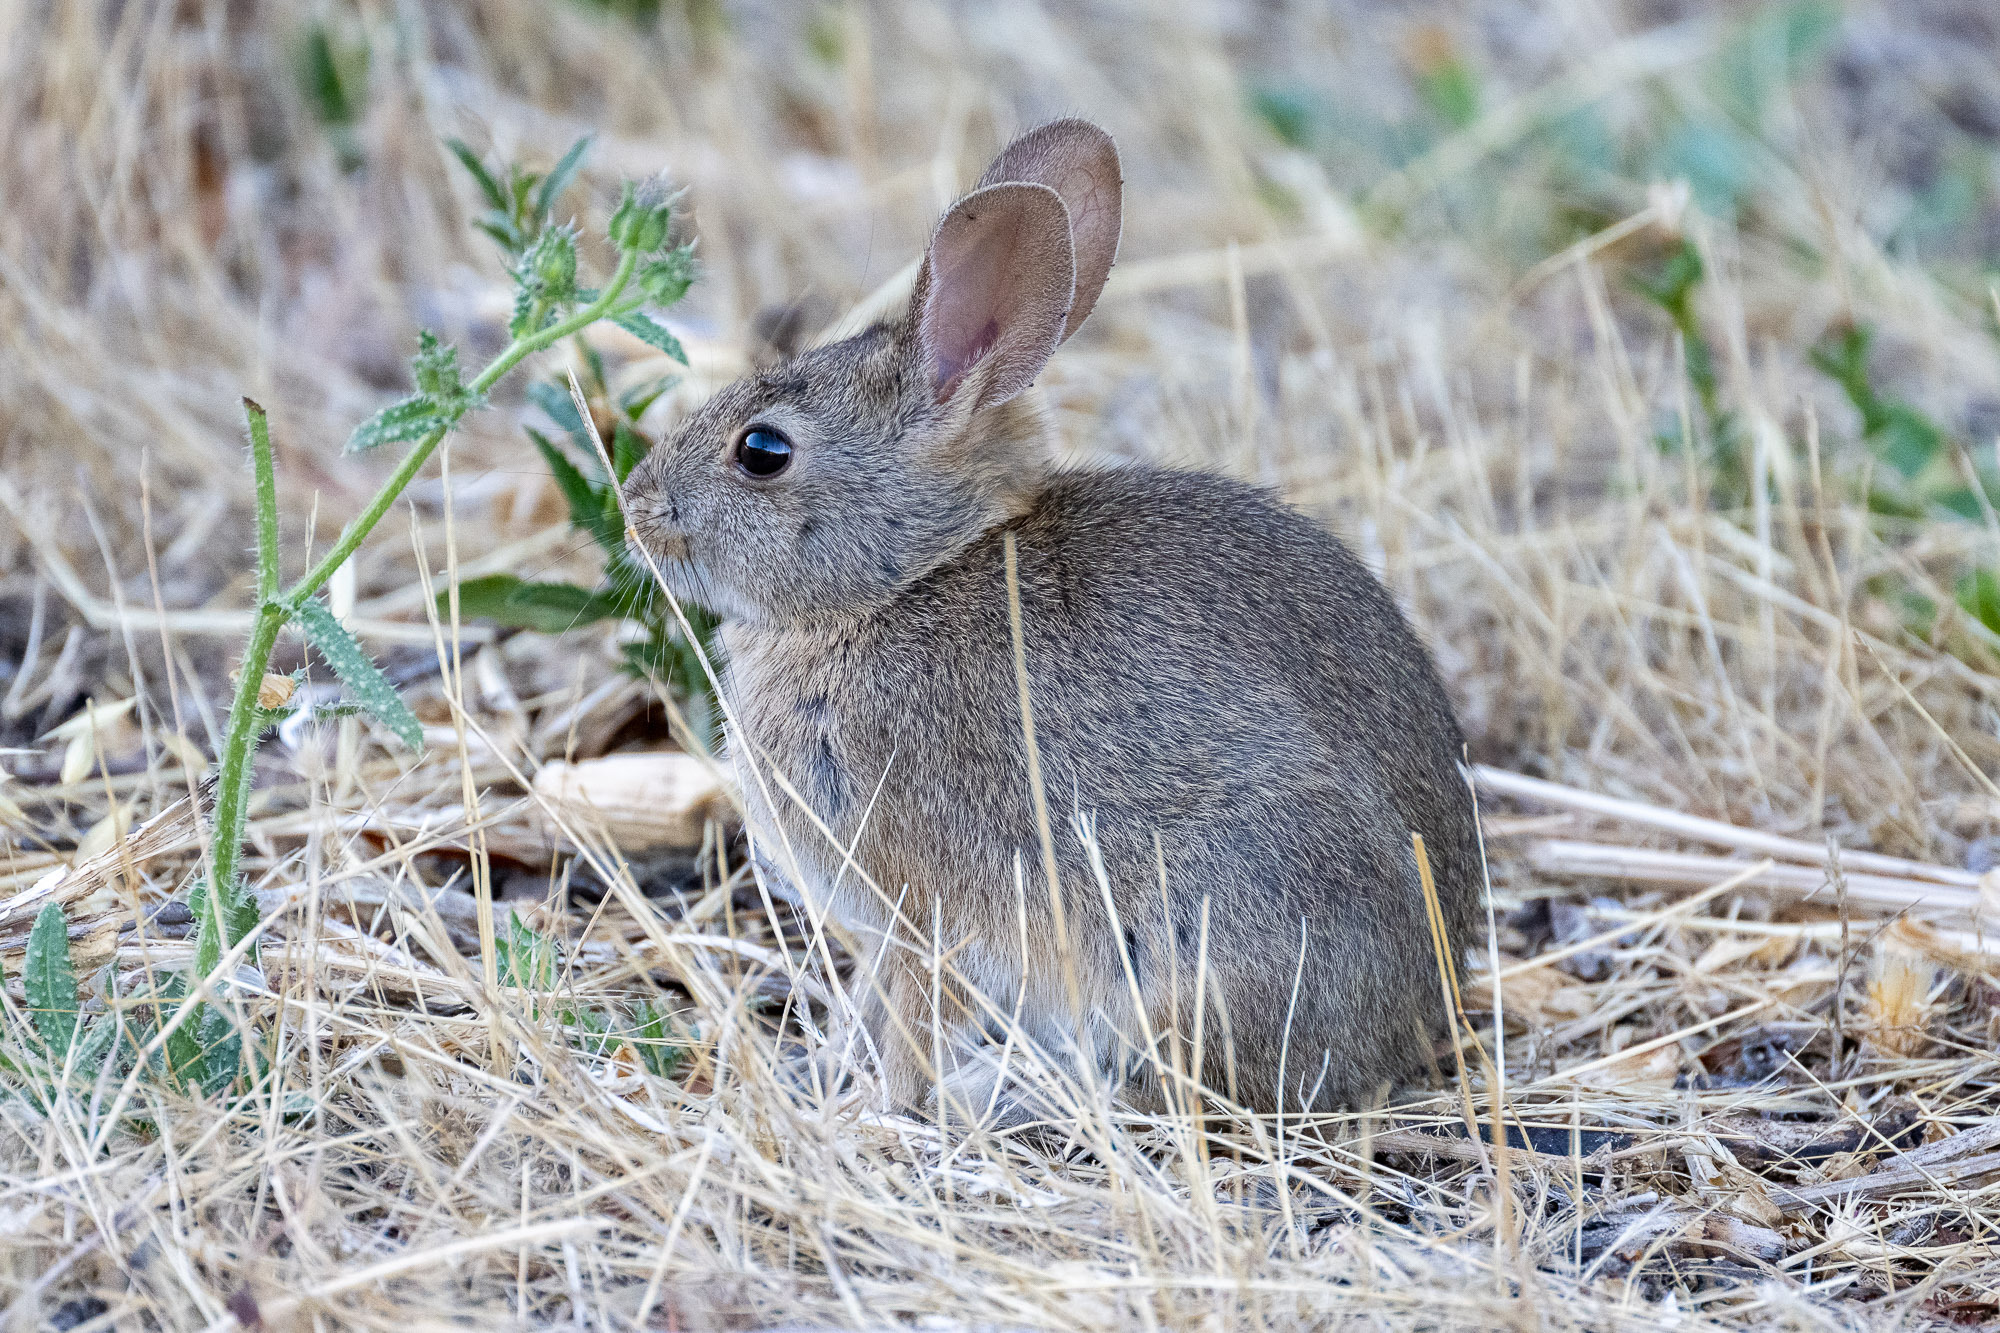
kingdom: Animalia
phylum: Chordata
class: Mammalia
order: Lagomorpha
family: Leporidae
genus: Sylvilagus
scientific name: Sylvilagus bachmani
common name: Brush rabbit
